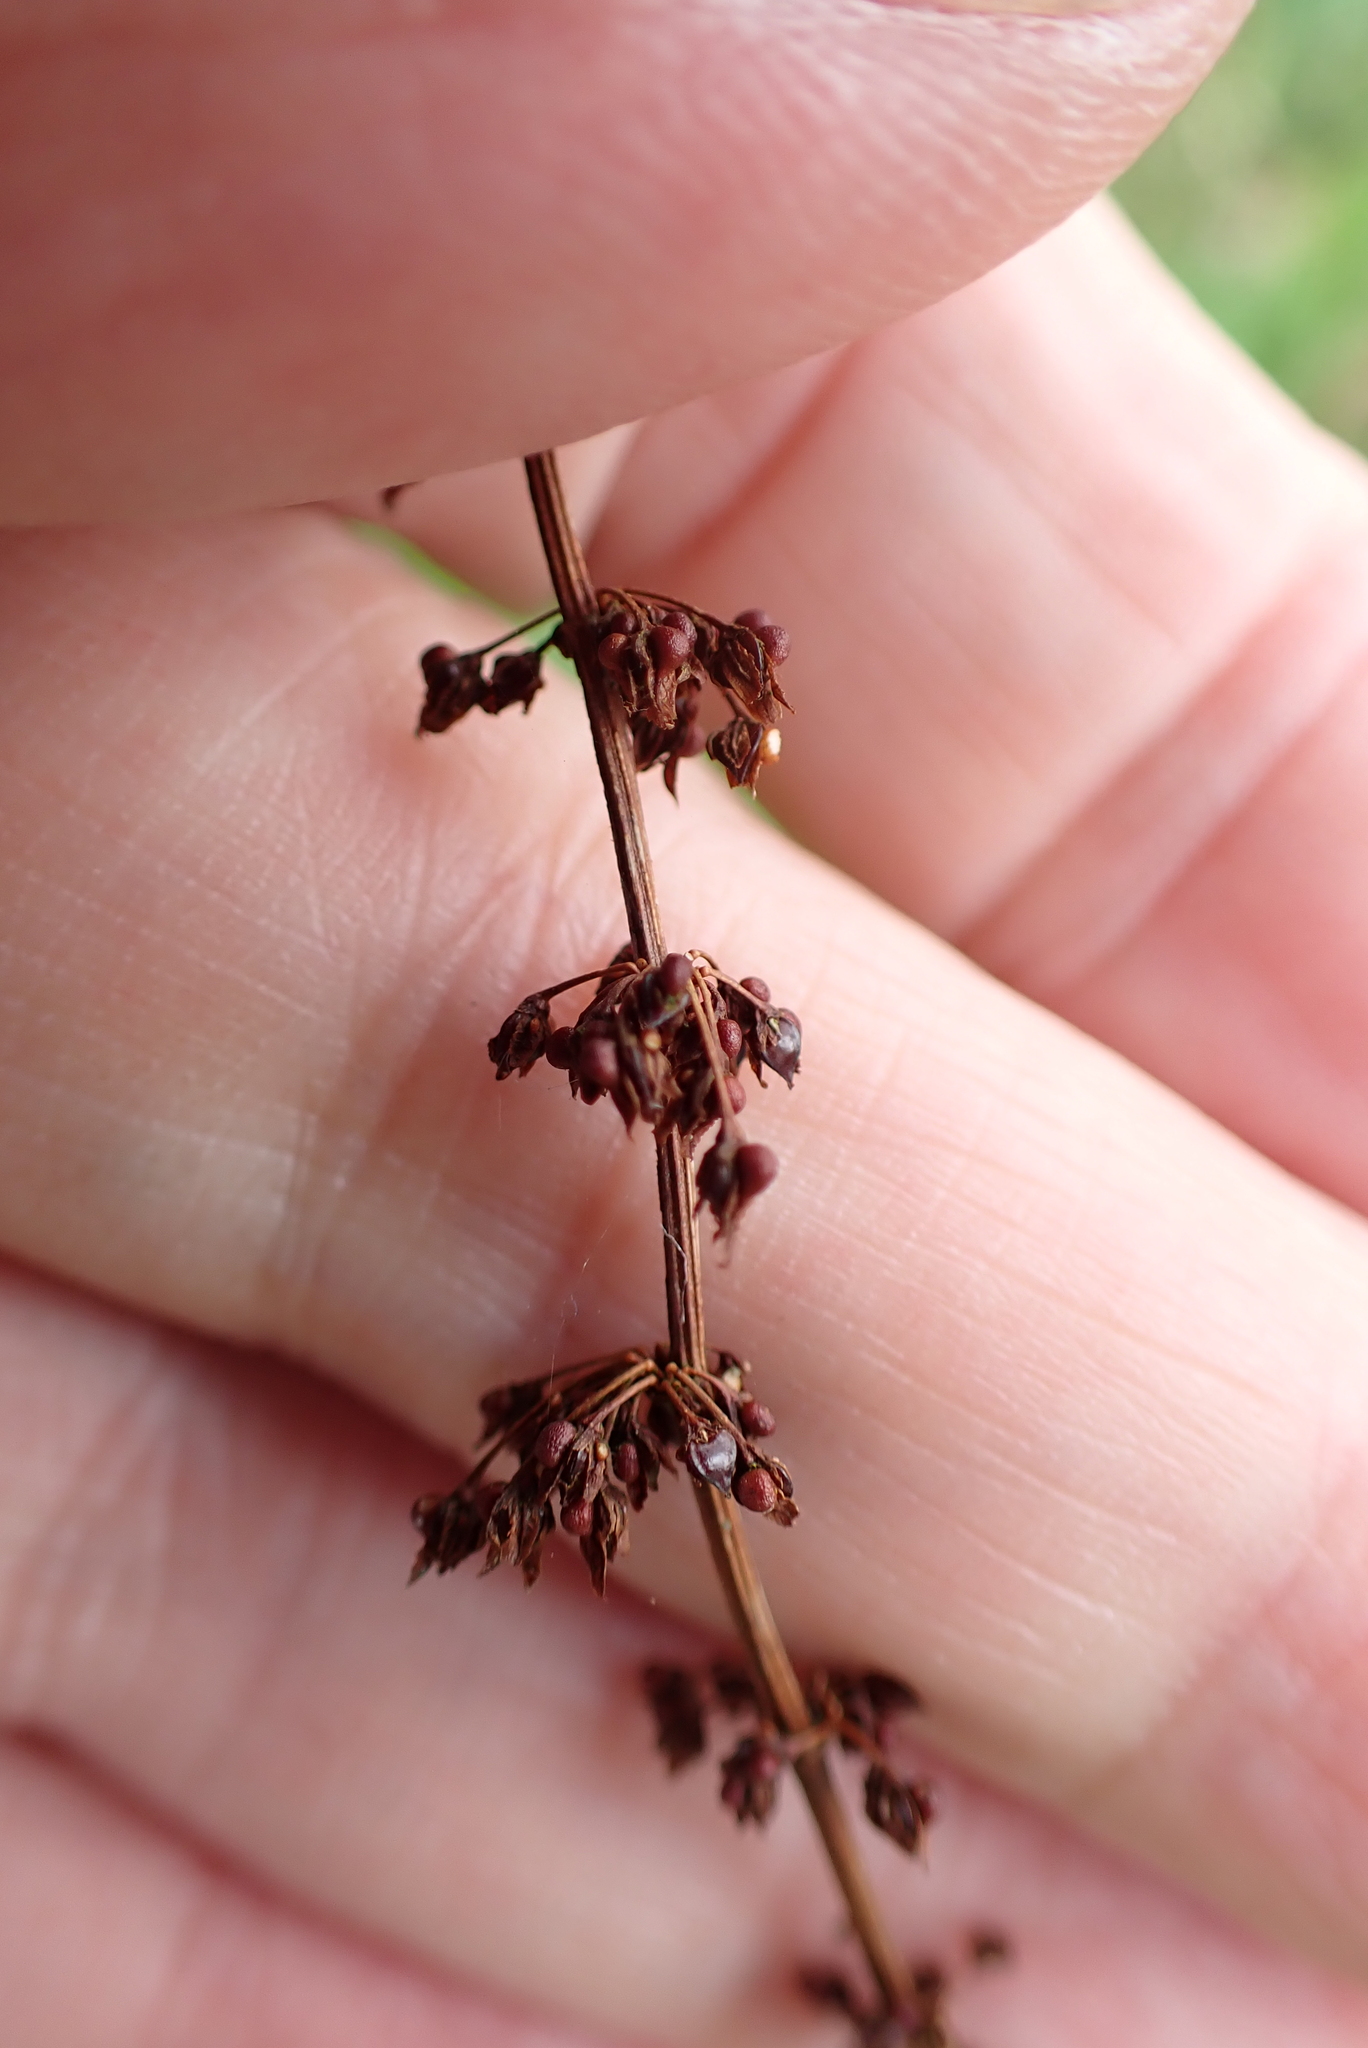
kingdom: Plantae
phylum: Tracheophyta
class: Magnoliopsida
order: Caryophyllales
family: Polygonaceae
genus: Rumex
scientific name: Rumex sanguineus
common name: Wood dock
